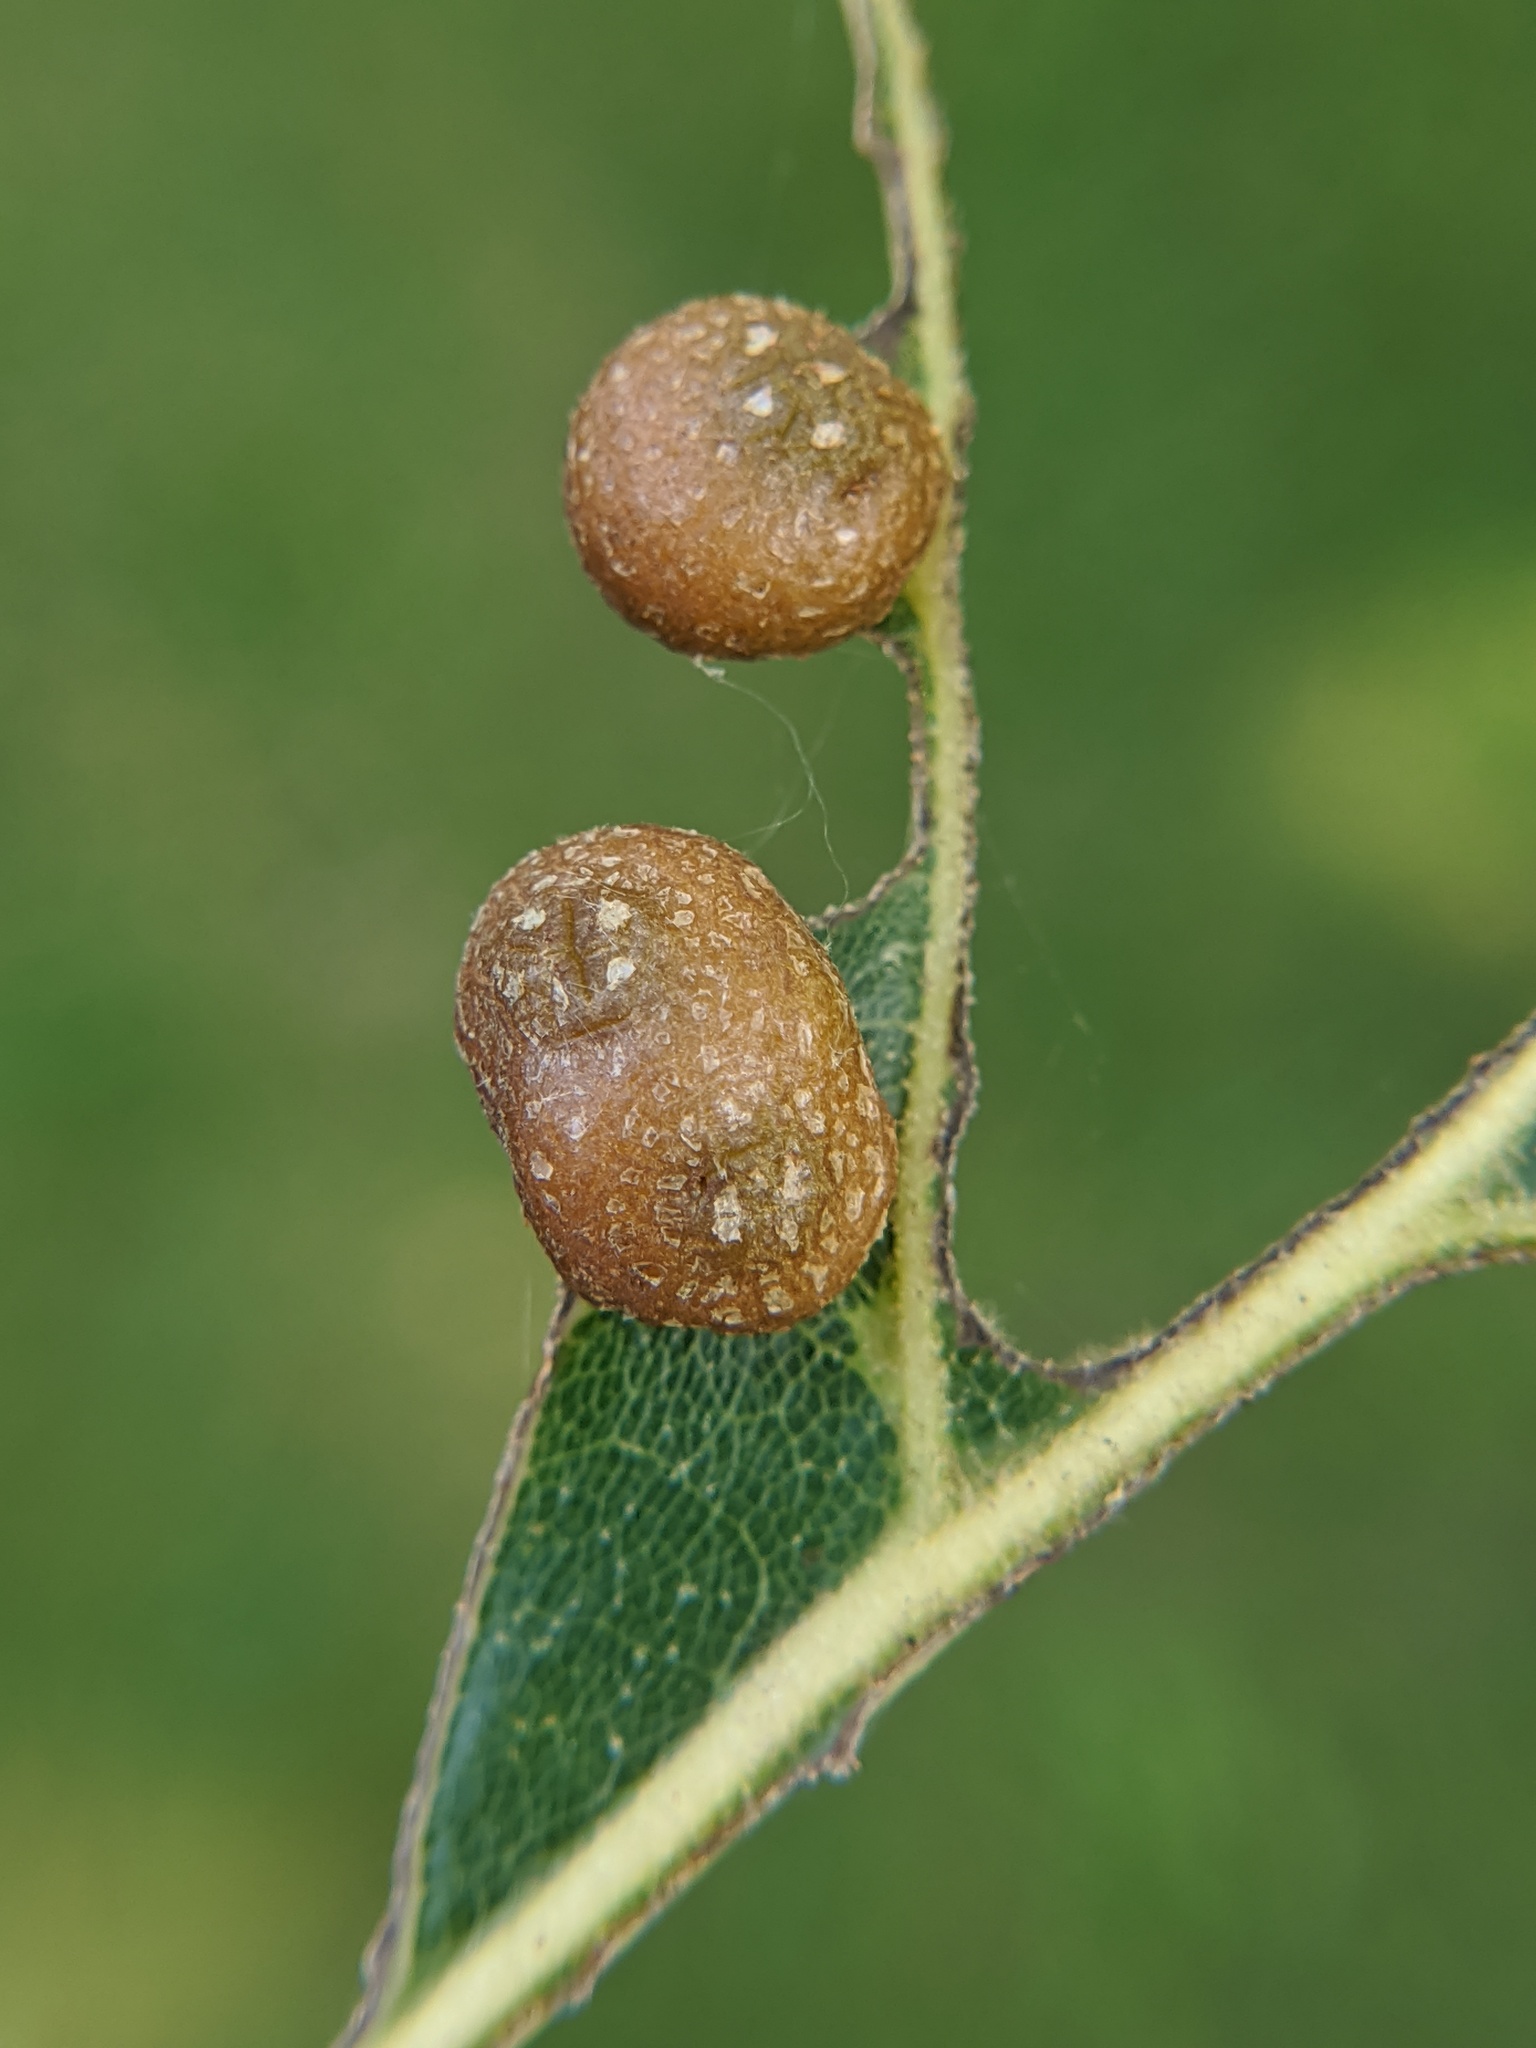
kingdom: Animalia
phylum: Arthropoda
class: Insecta
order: Diptera
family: Cecidomyiidae
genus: Polystepha
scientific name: Polystepha pilulae
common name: Oak leaf gall midge
